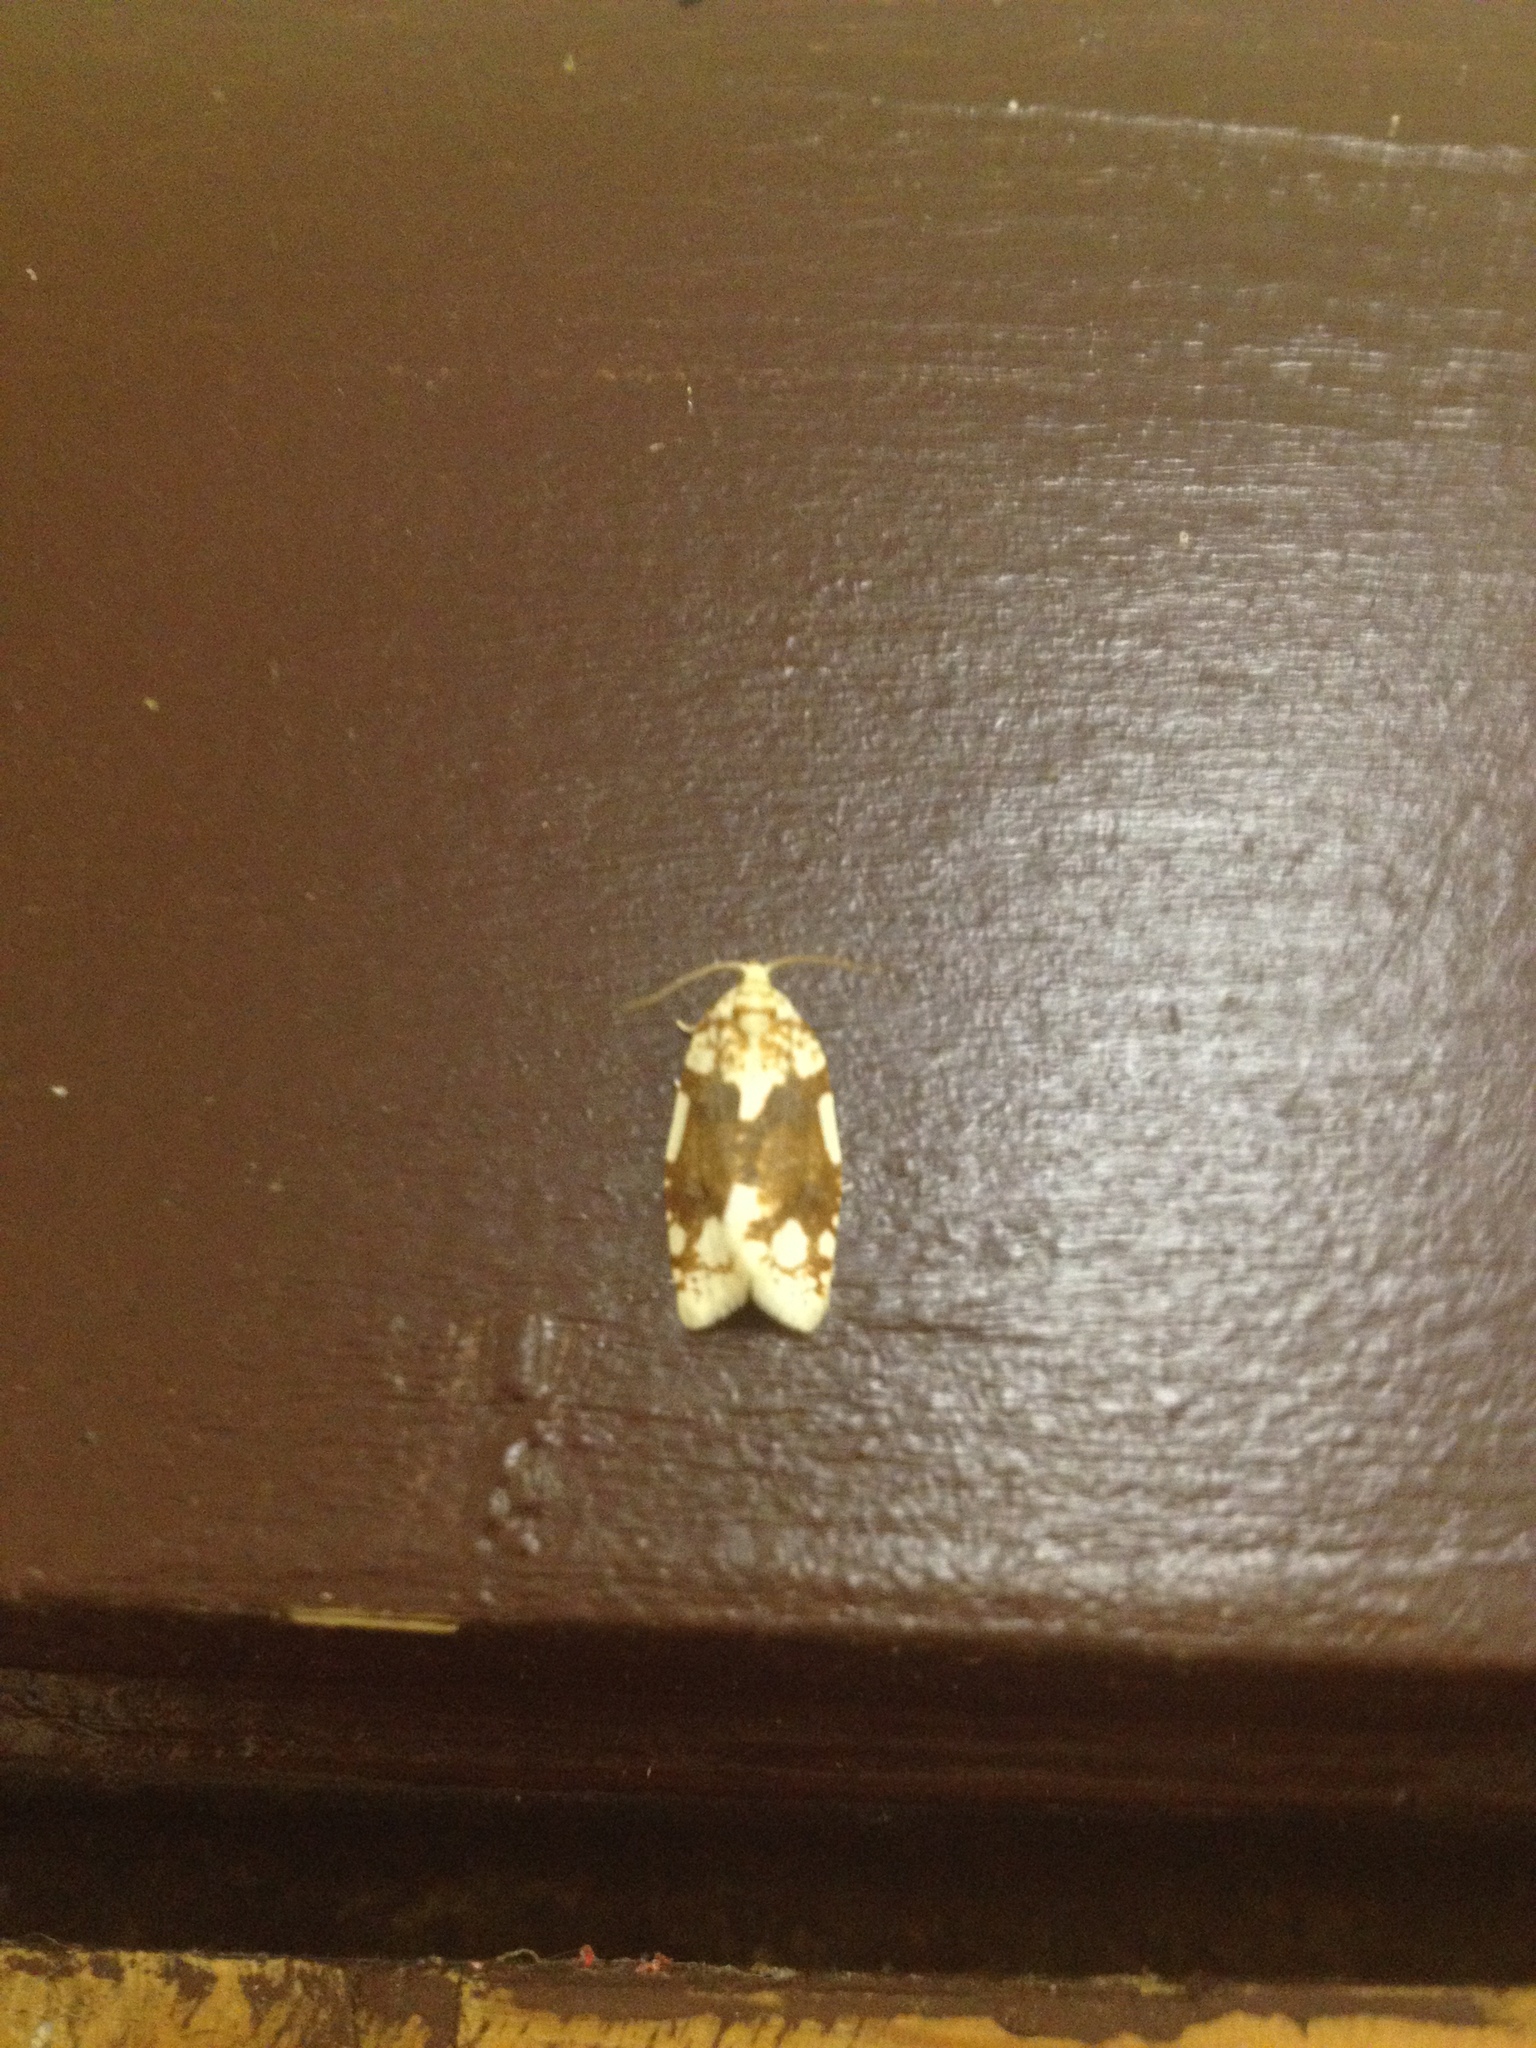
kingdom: Animalia
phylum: Arthropoda
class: Insecta
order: Lepidoptera
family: Tortricidae
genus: Argyrotaenia
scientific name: Argyrotaenia alisellana
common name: White-spotted leafroller moth
